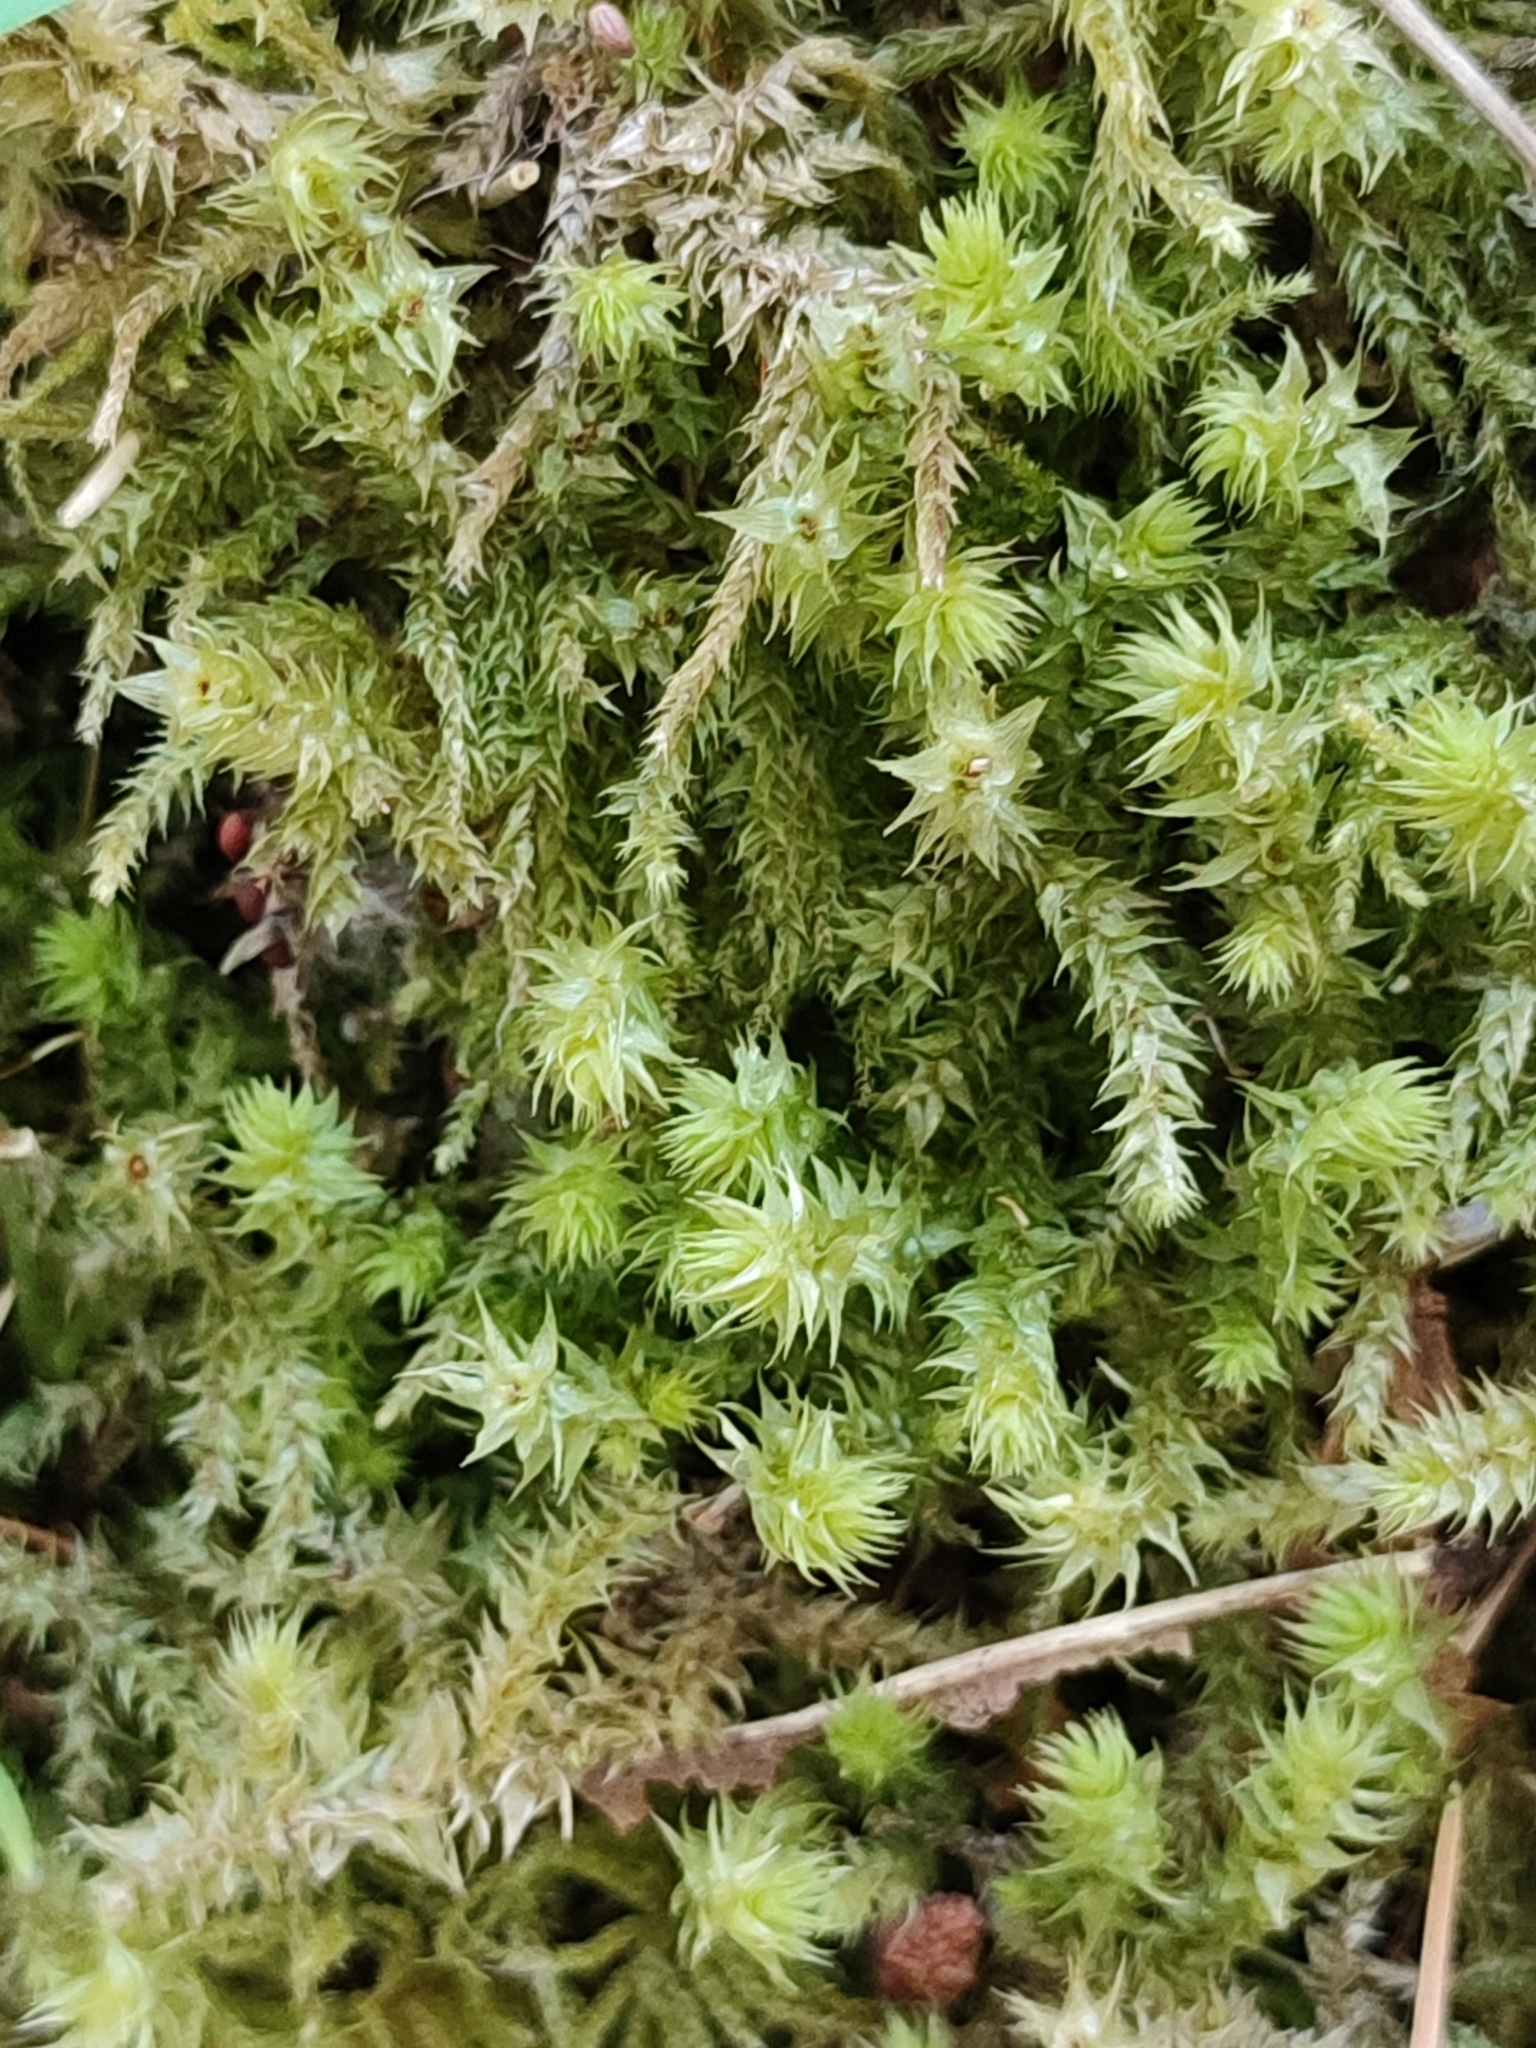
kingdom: Plantae
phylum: Bryophyta
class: Bryopsida
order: Hypnales
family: Hylocomiaceae
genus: Hylocomiadelphus
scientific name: Hylocomiadelphus triquetrus
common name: Rough goose neck moss
